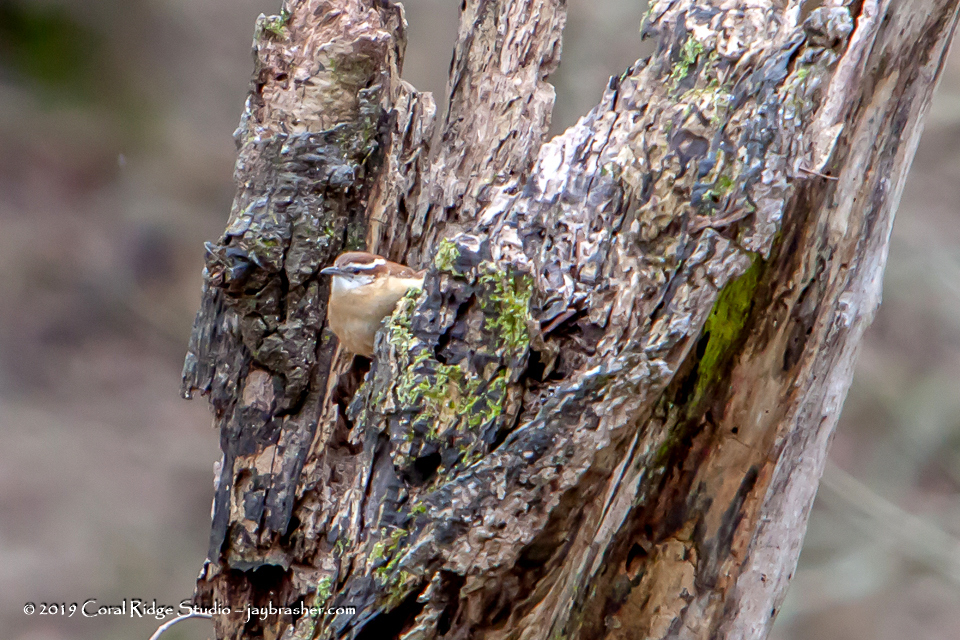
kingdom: Animalia
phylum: Chordata
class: Aves
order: Passeriformes
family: Troglodytidae
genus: Thryothorus
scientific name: Thryothorus ludovicianus
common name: Carolina wren
